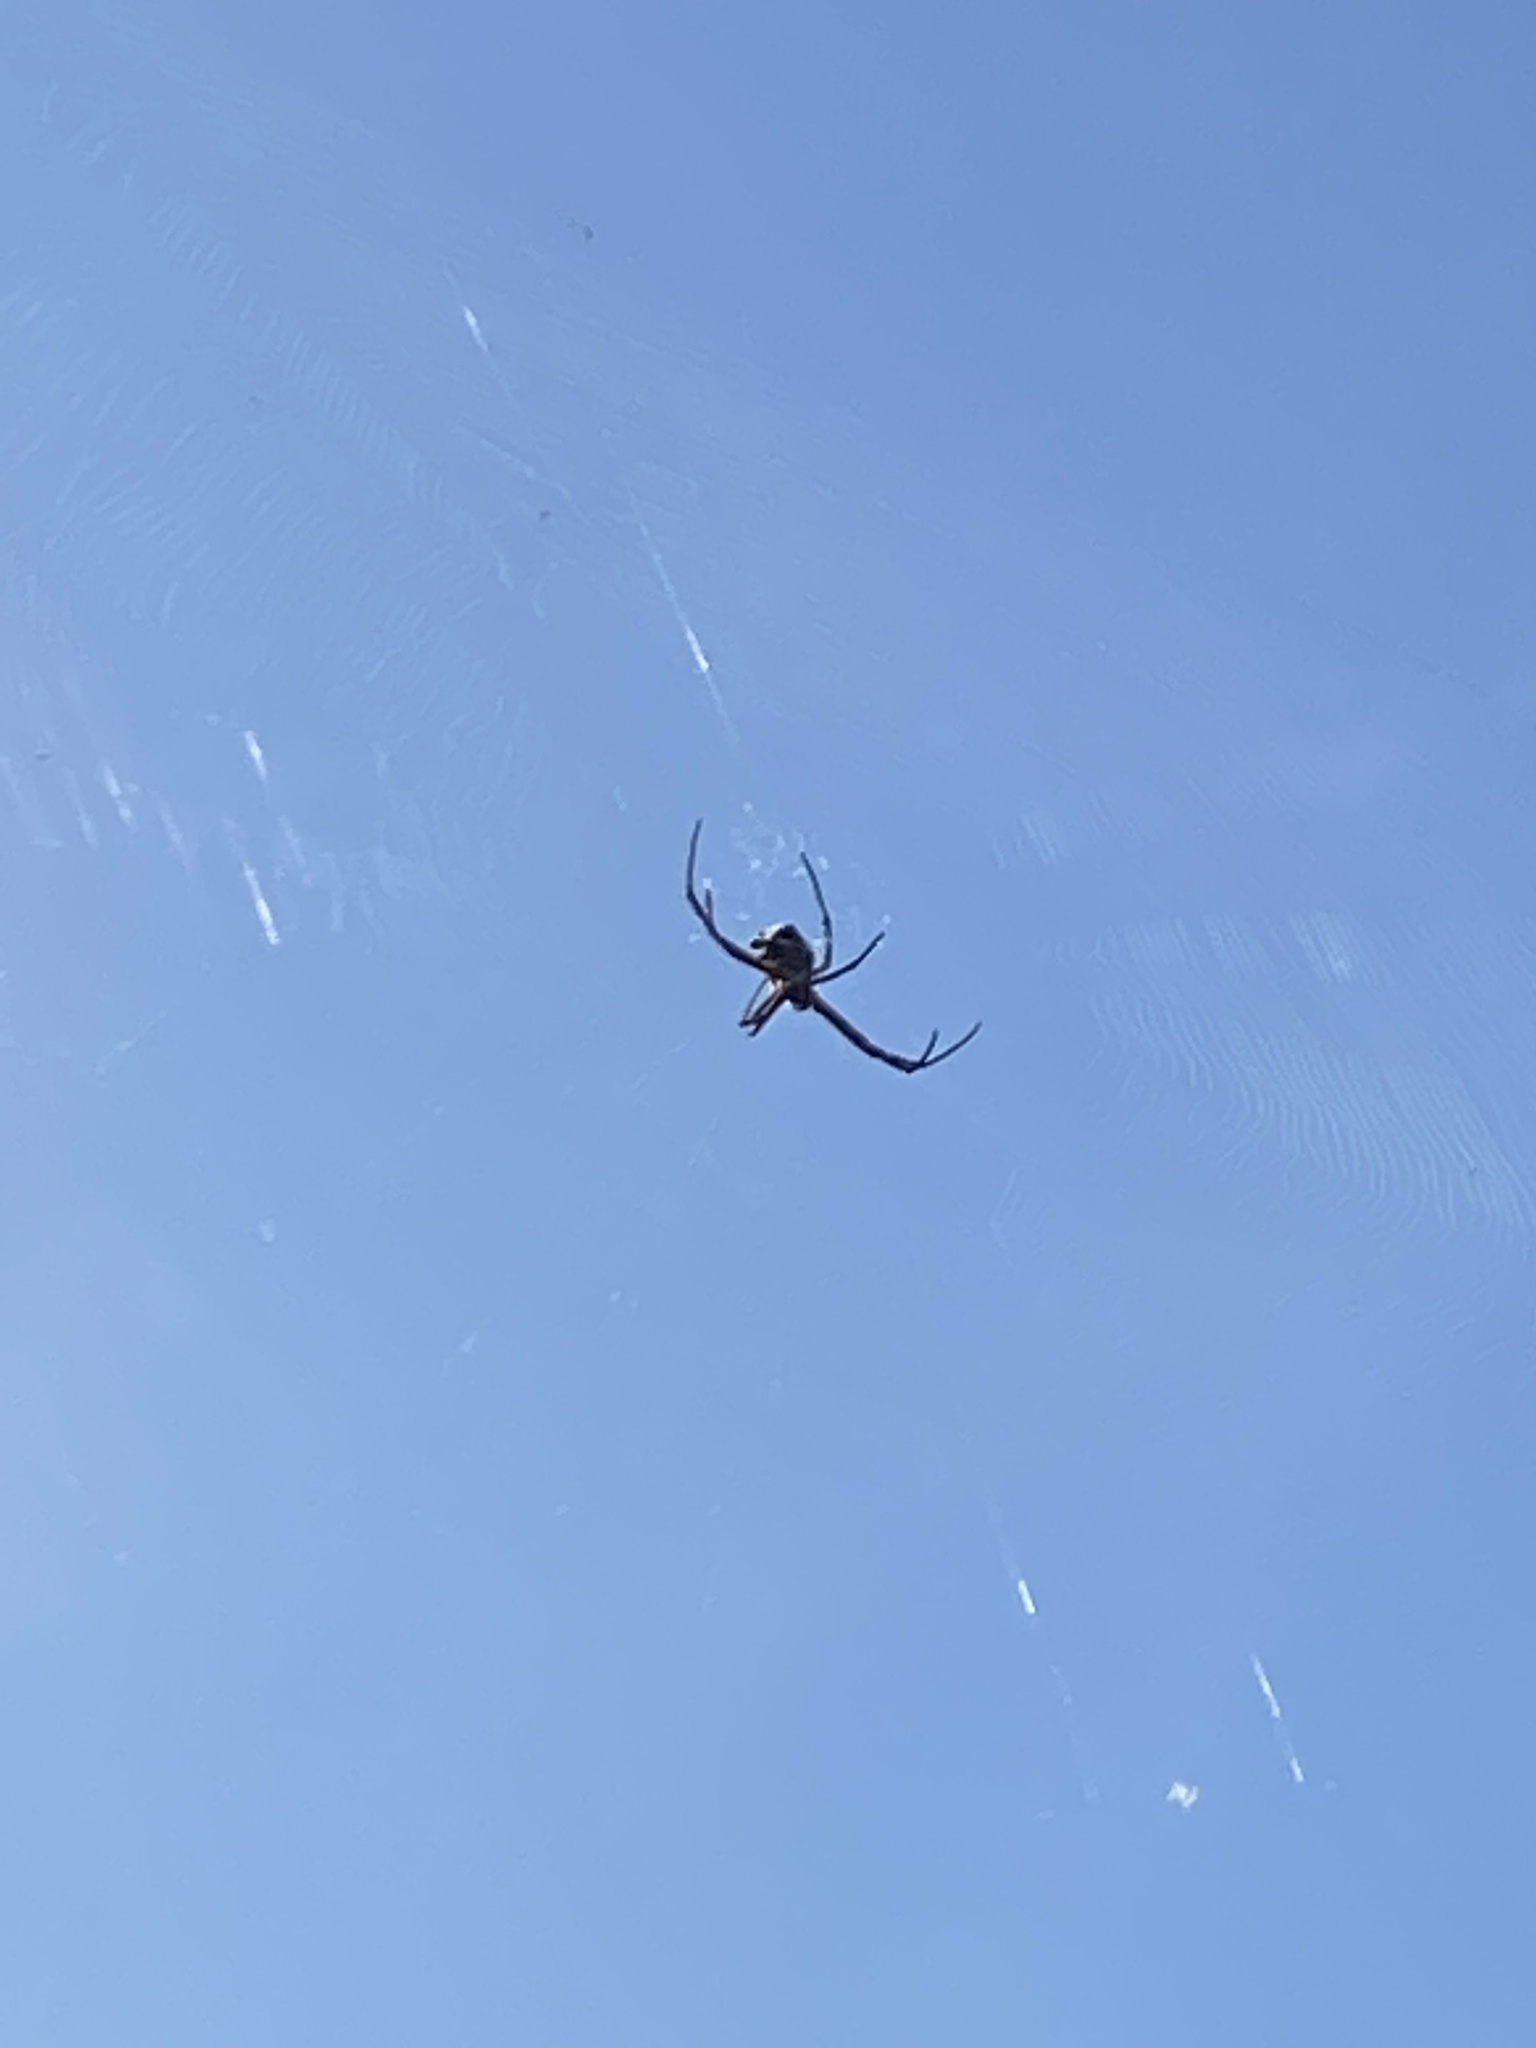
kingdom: Animalia
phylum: Arthropoda
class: Arachnida
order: Araneae
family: Araneidae
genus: Argiope
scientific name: Argiope argentata
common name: Orb weavers
